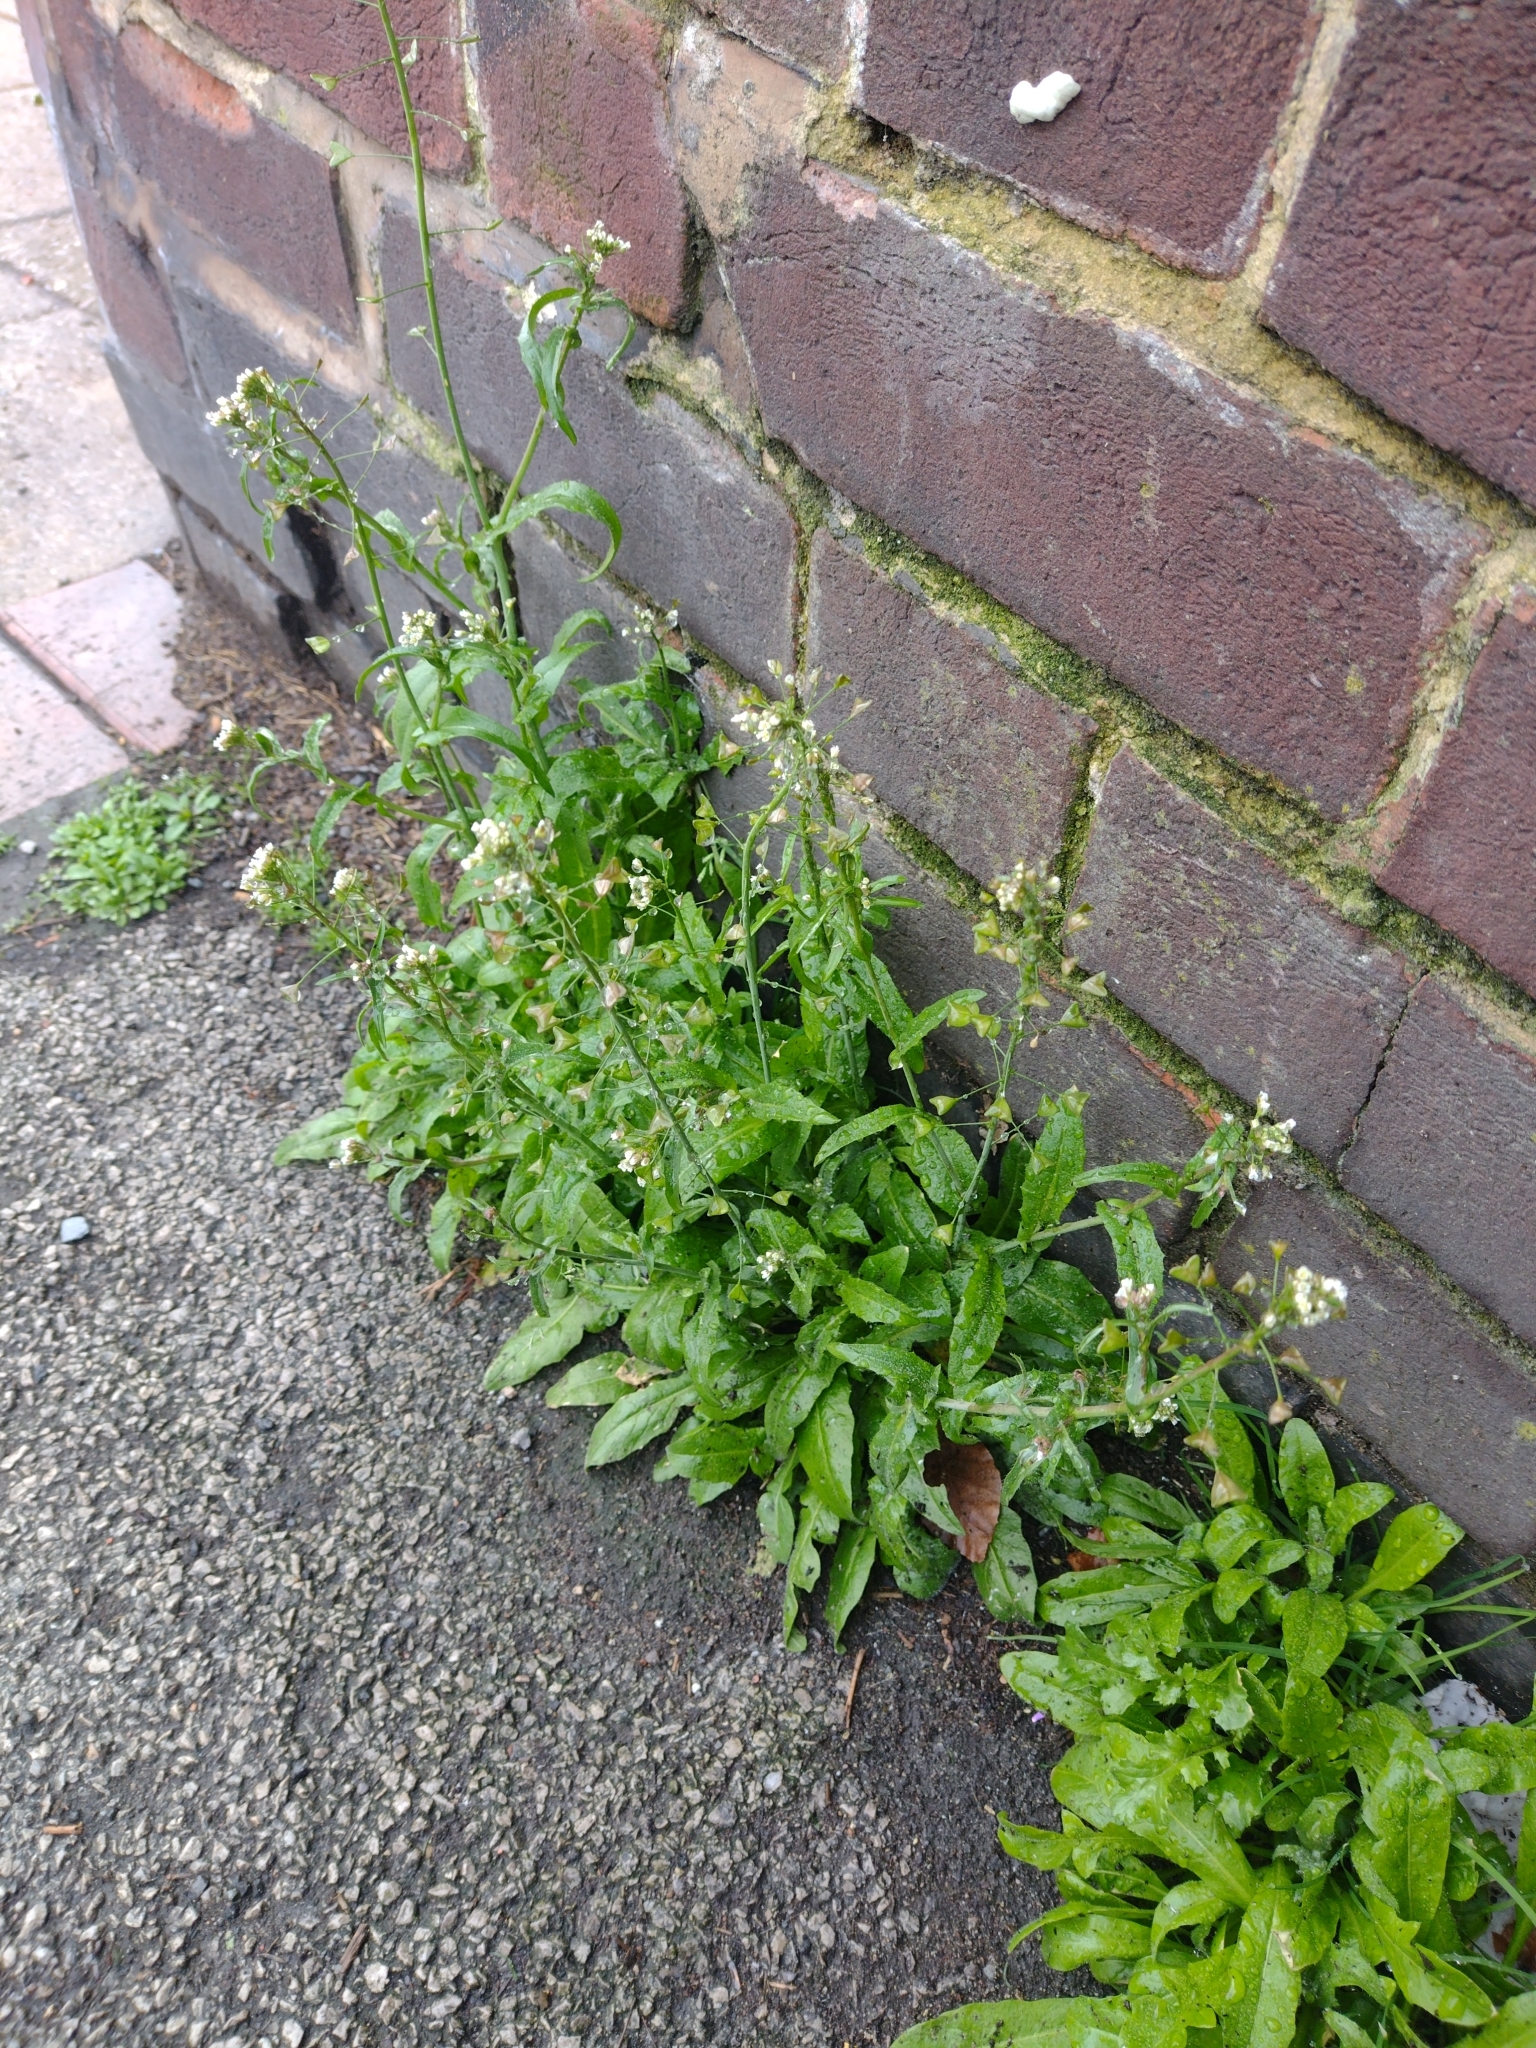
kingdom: Plantae
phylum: Tracheophyta
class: Magnoliopsida
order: Brassicales
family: Brassicaceae
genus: Capsella
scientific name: Capsella bursa-pastoris
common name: Shepherd's purse
